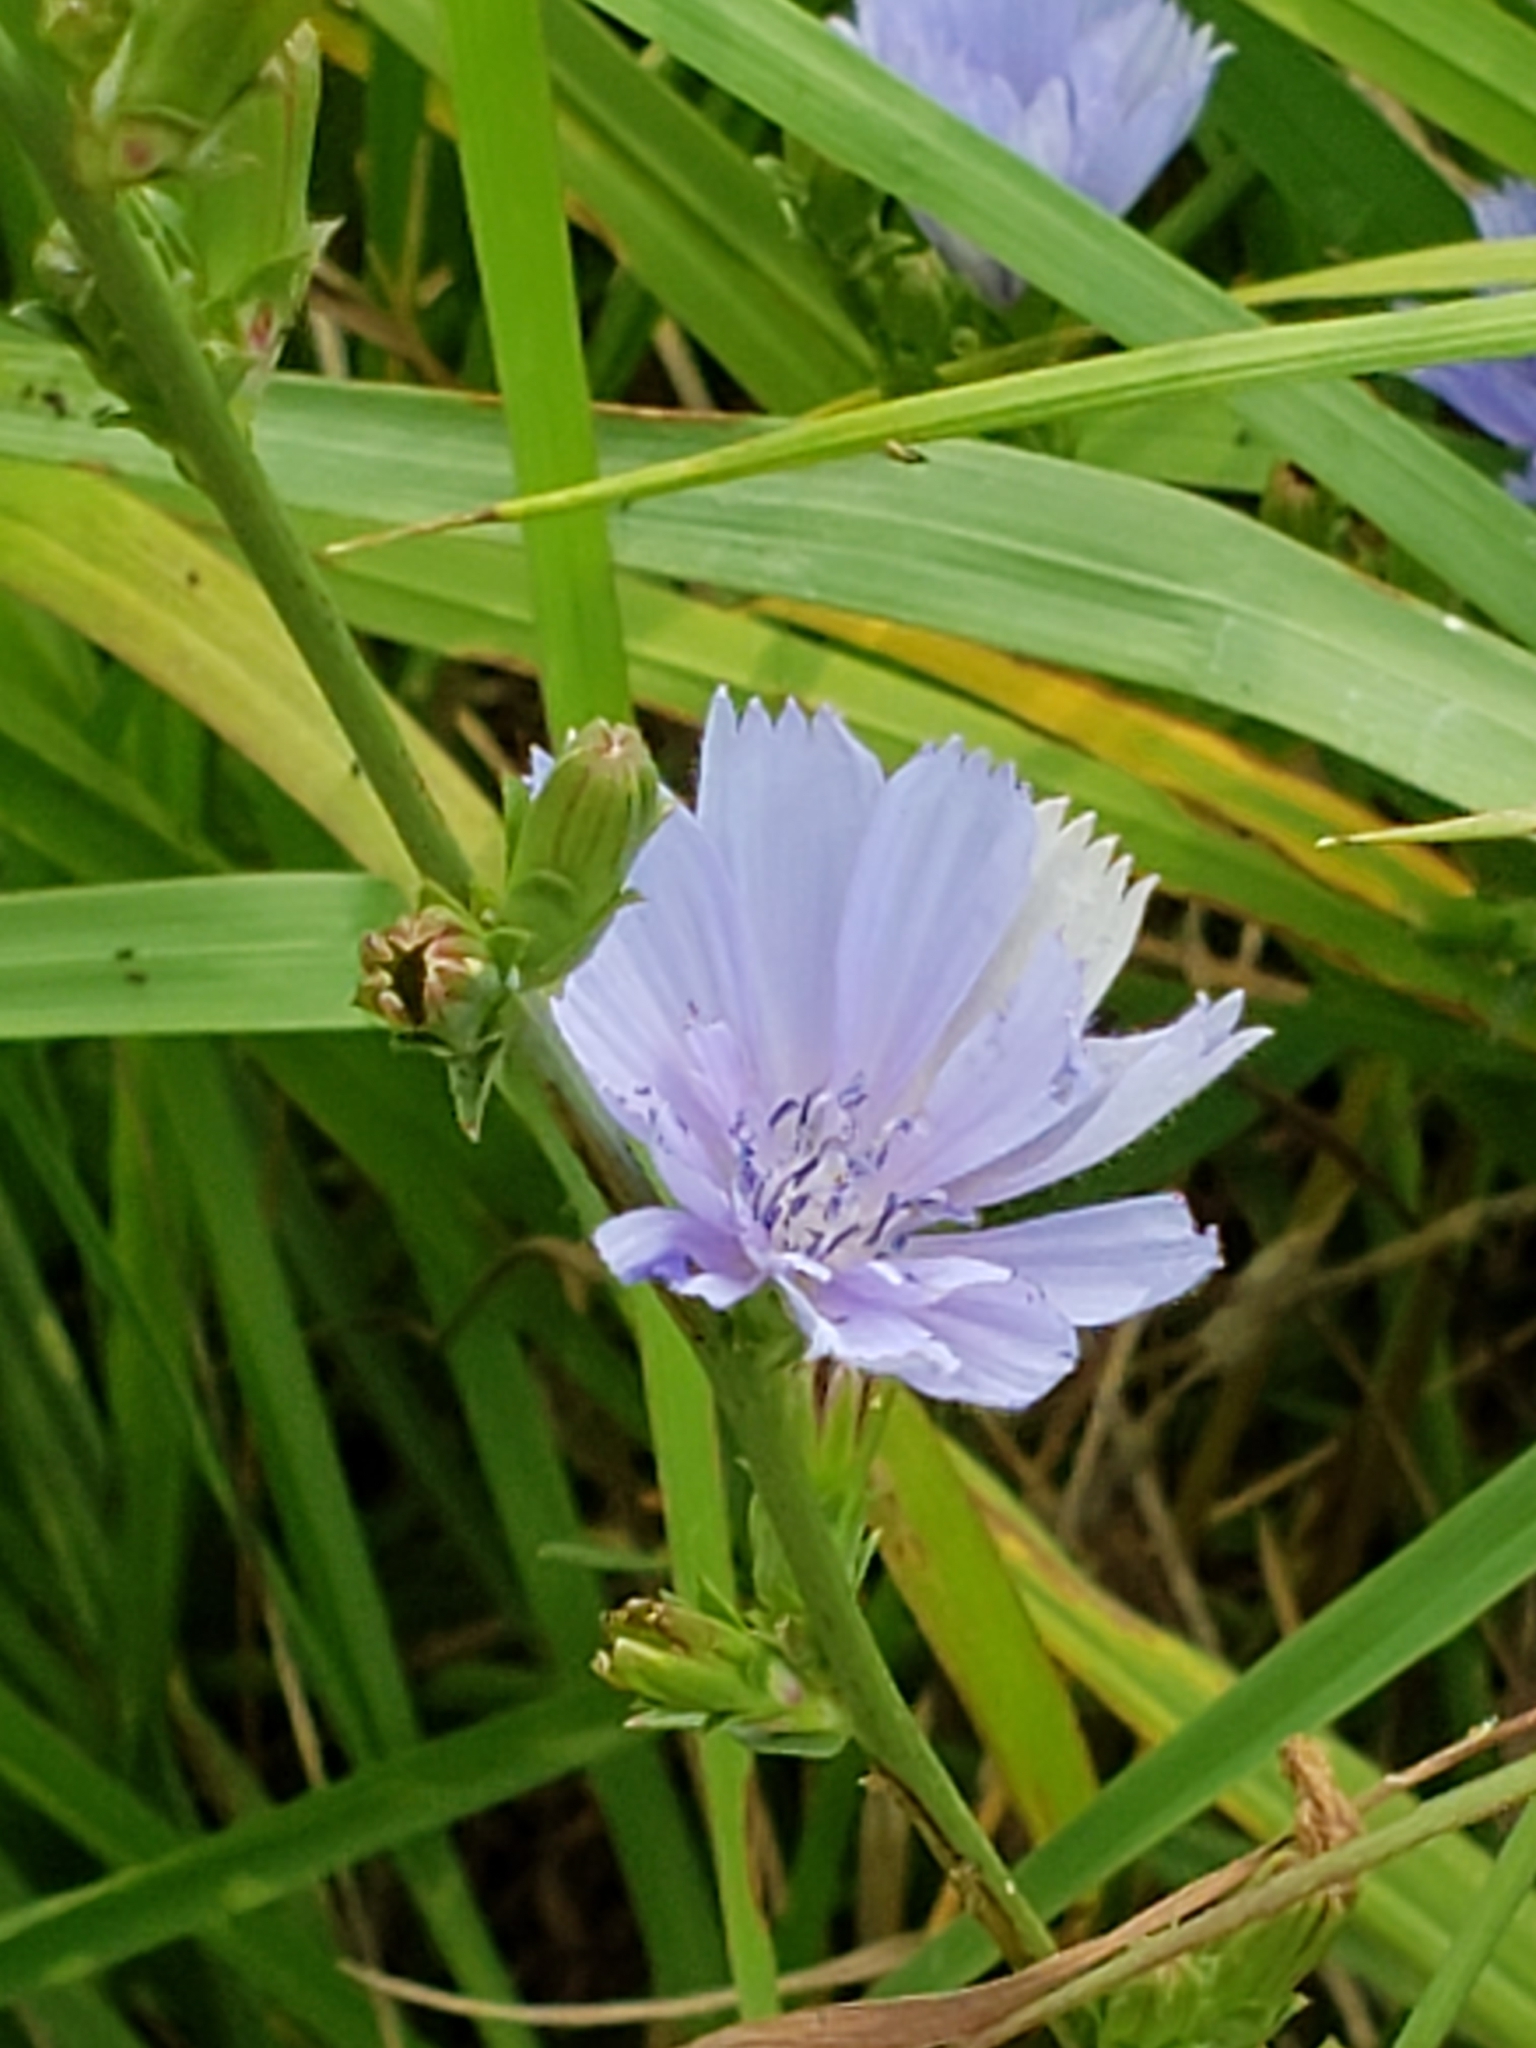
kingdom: Plantae
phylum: Tracheophyta
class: Magnoliopsida
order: Asterales
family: Asteraceae
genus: Cichorium
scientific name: Cichorium intybus
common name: Chicory
